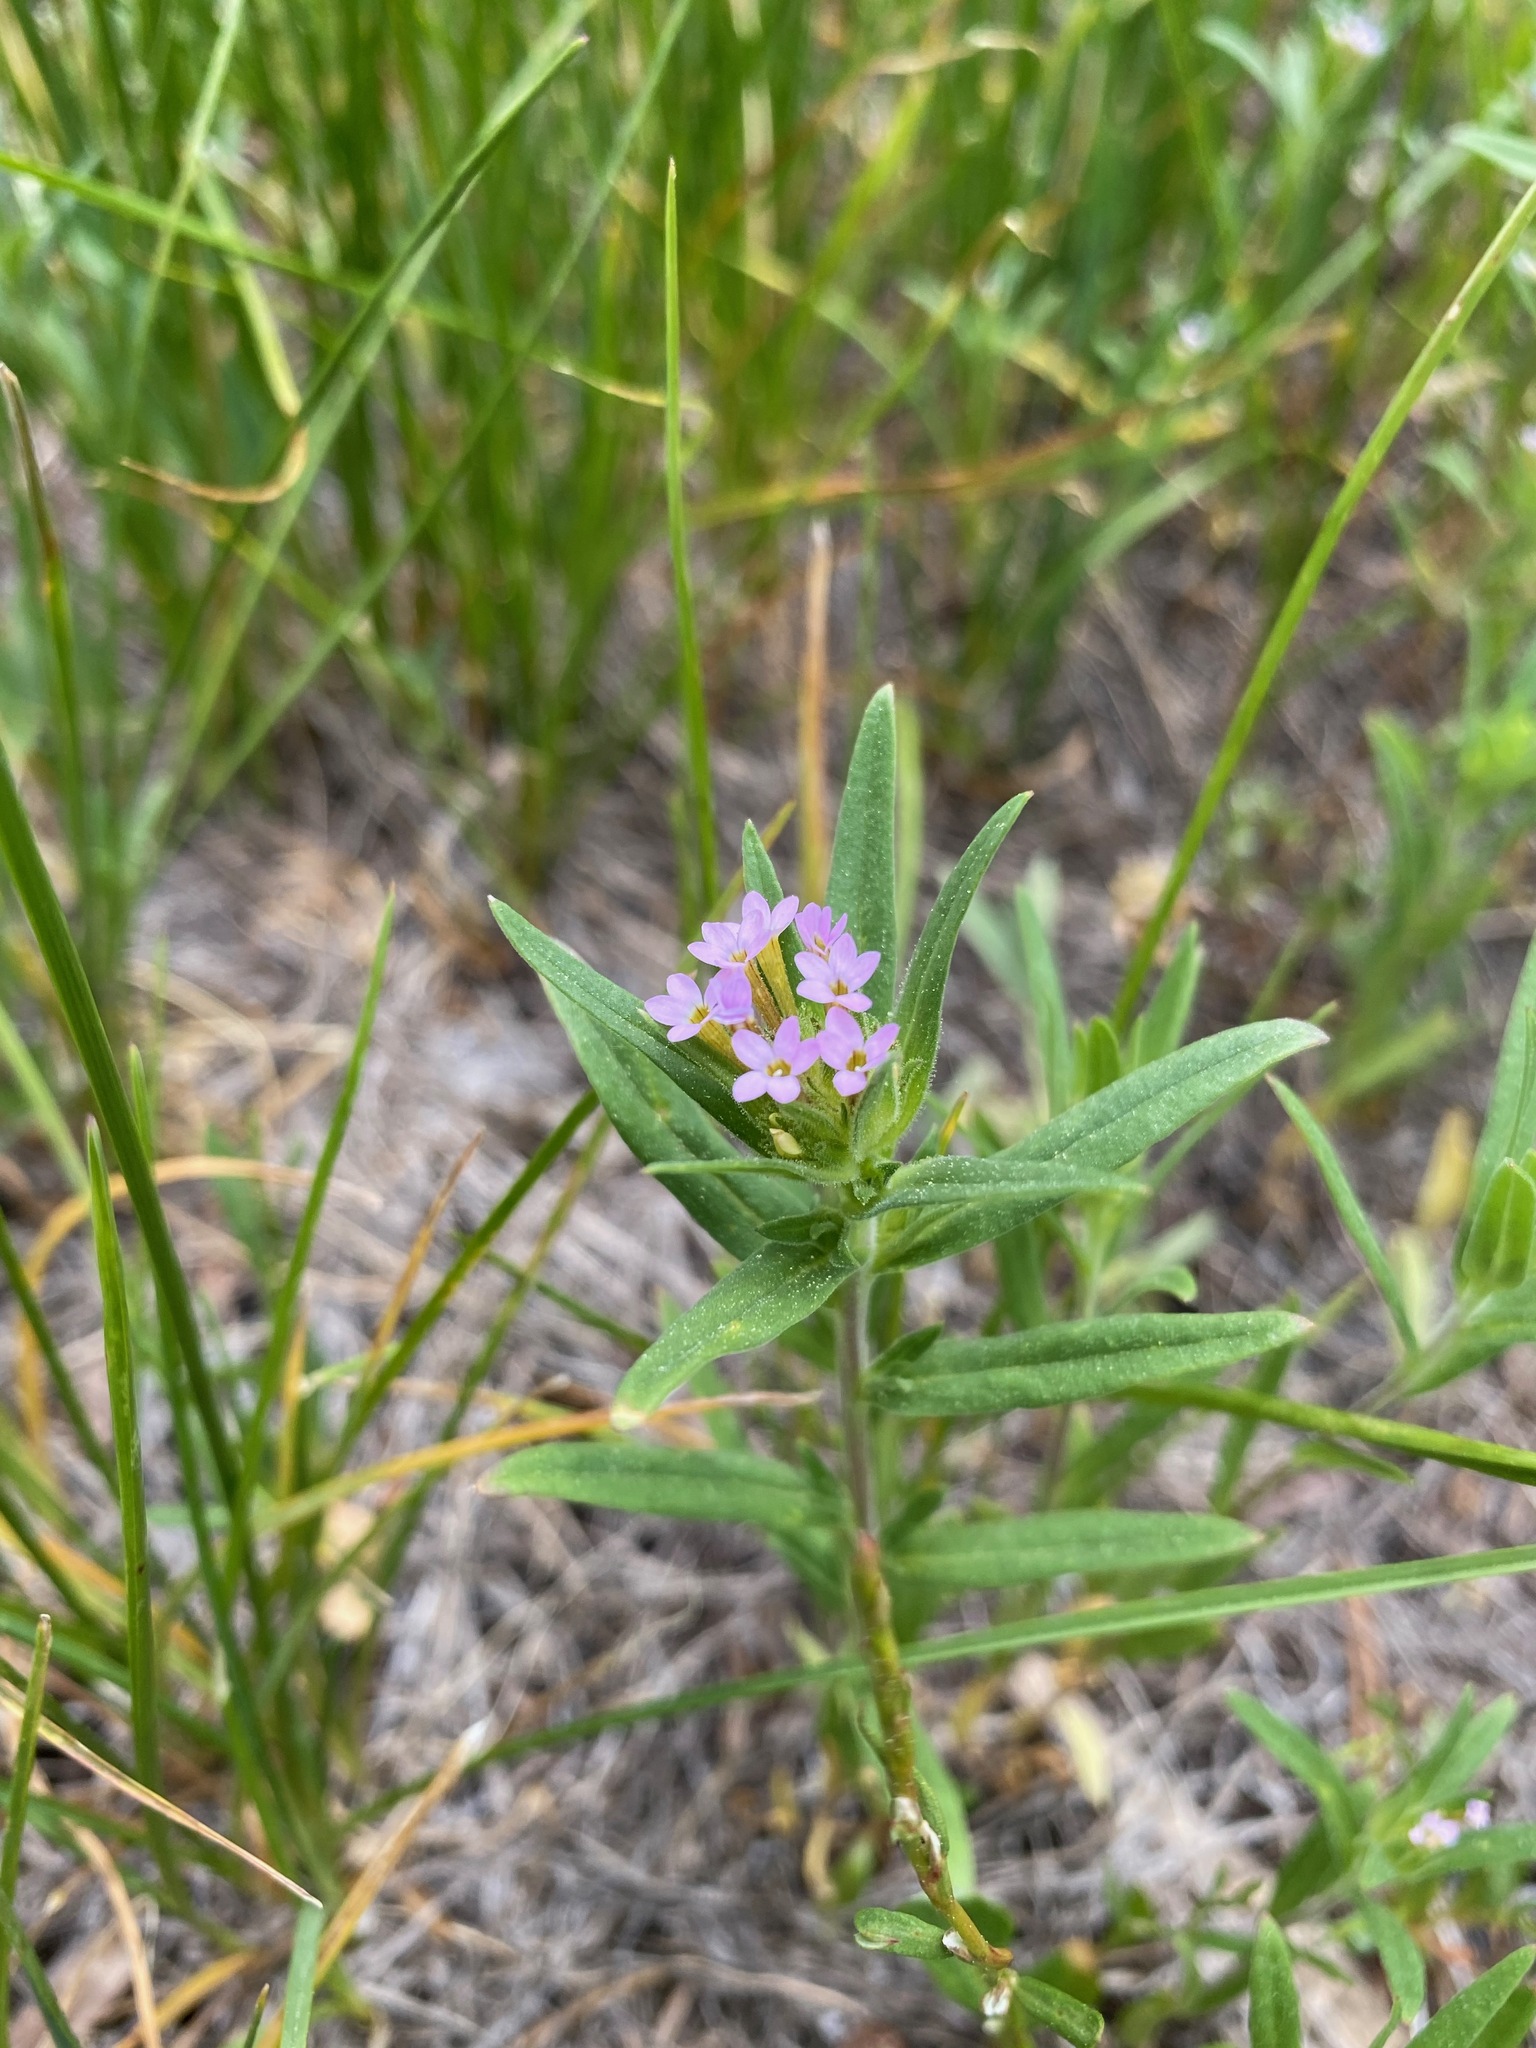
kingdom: Plantae
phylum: Tracheophyta
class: Magnoliopsida
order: Ericales
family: Polemoniaceae
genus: Phlox
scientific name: Phlox gracilis
